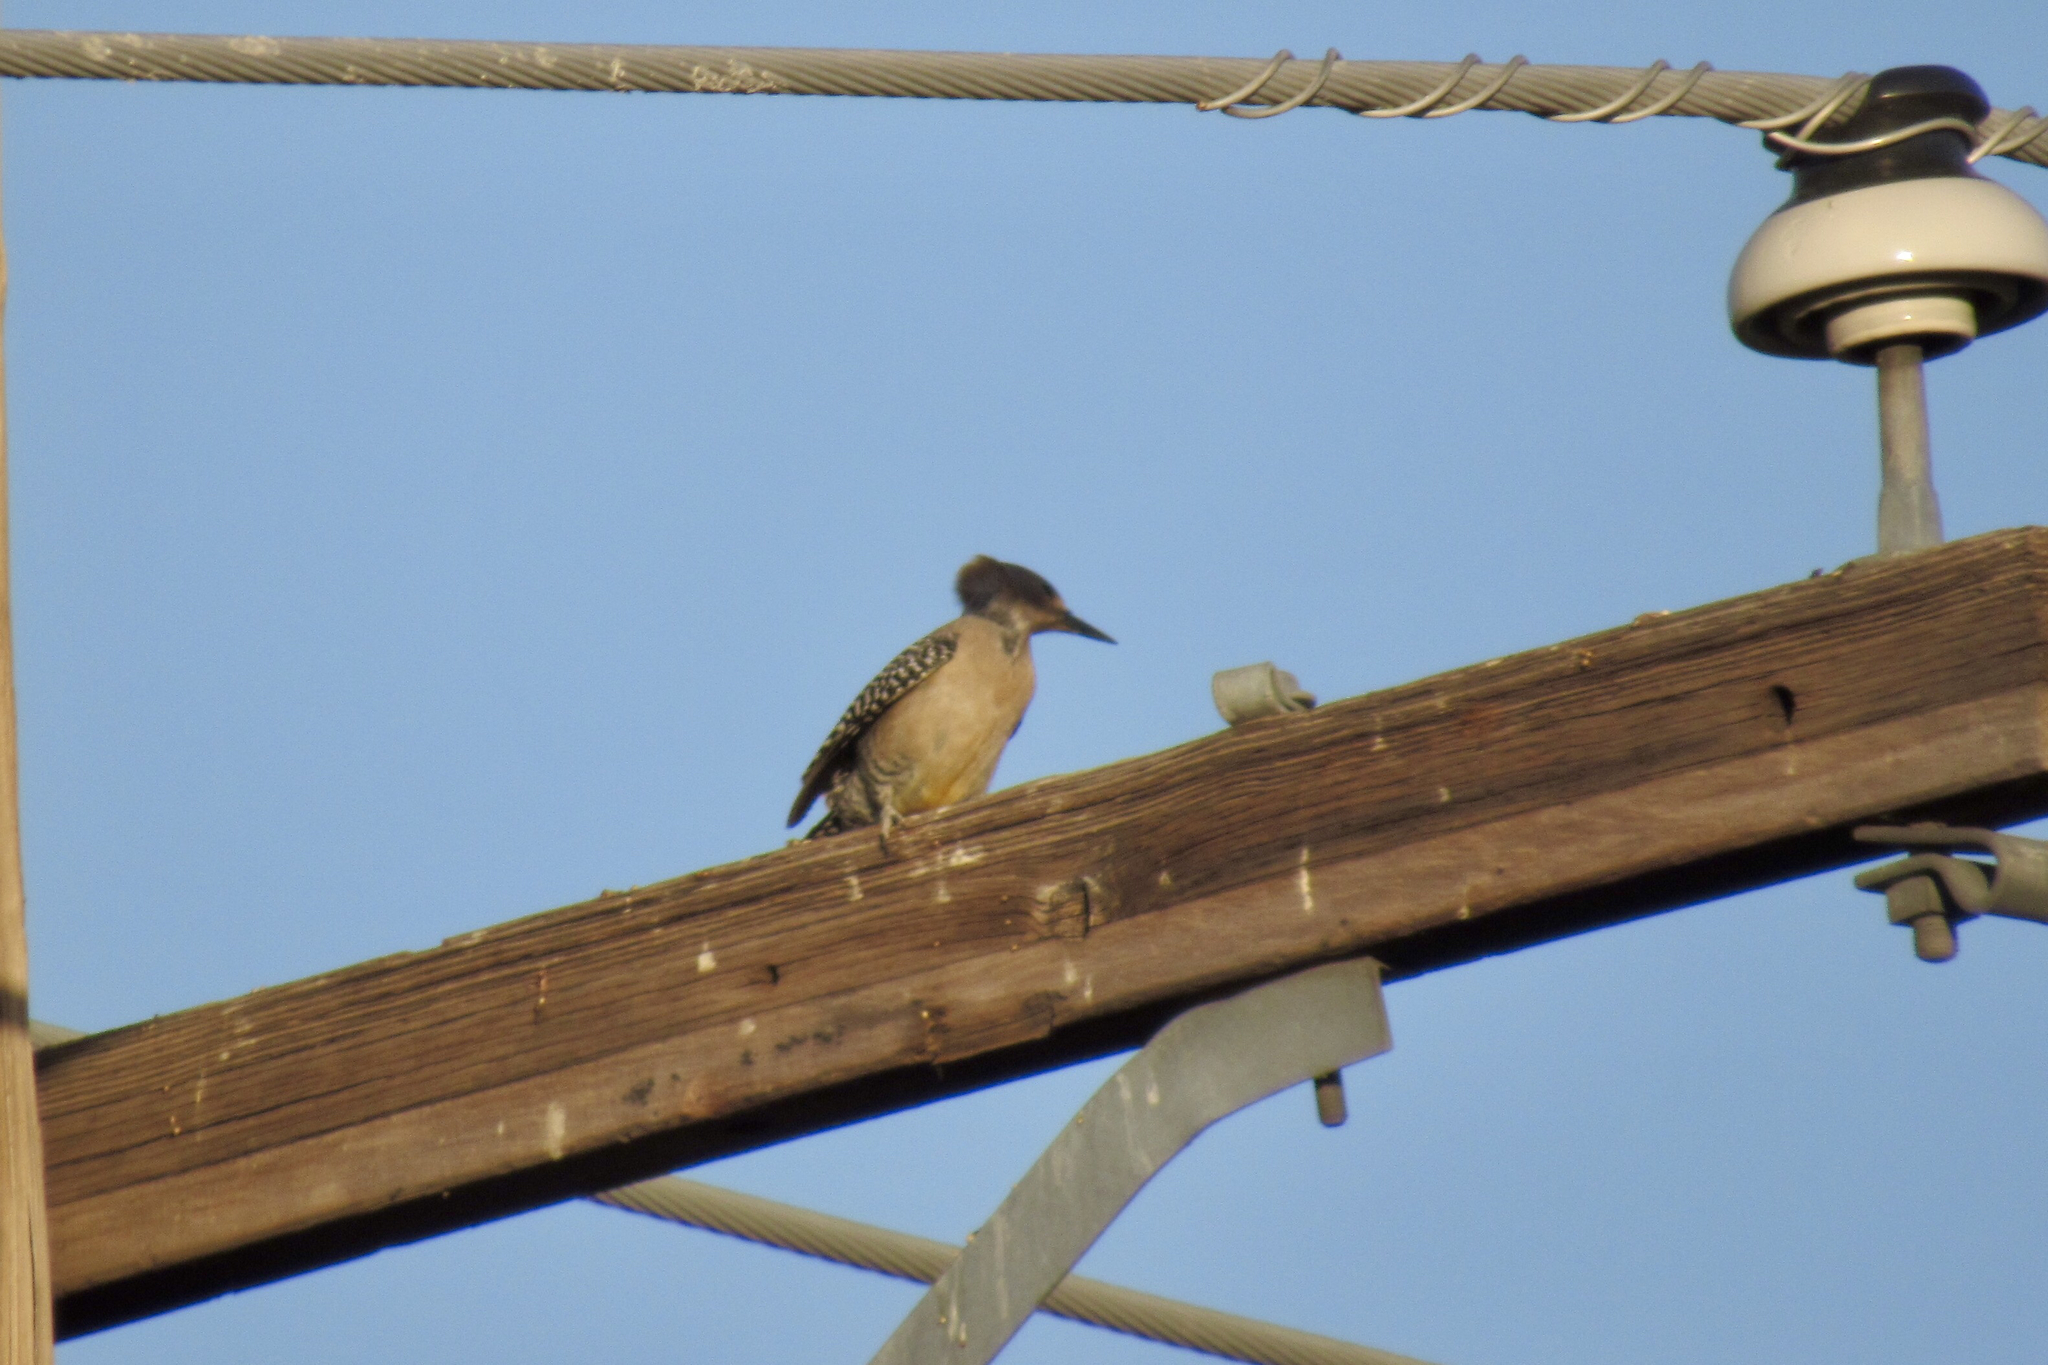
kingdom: Animalia
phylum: Chordata
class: Aves
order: Piciformes
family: Picidae
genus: Melanerpes
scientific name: Melanerpes uropygialis
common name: Gila woodpecker
